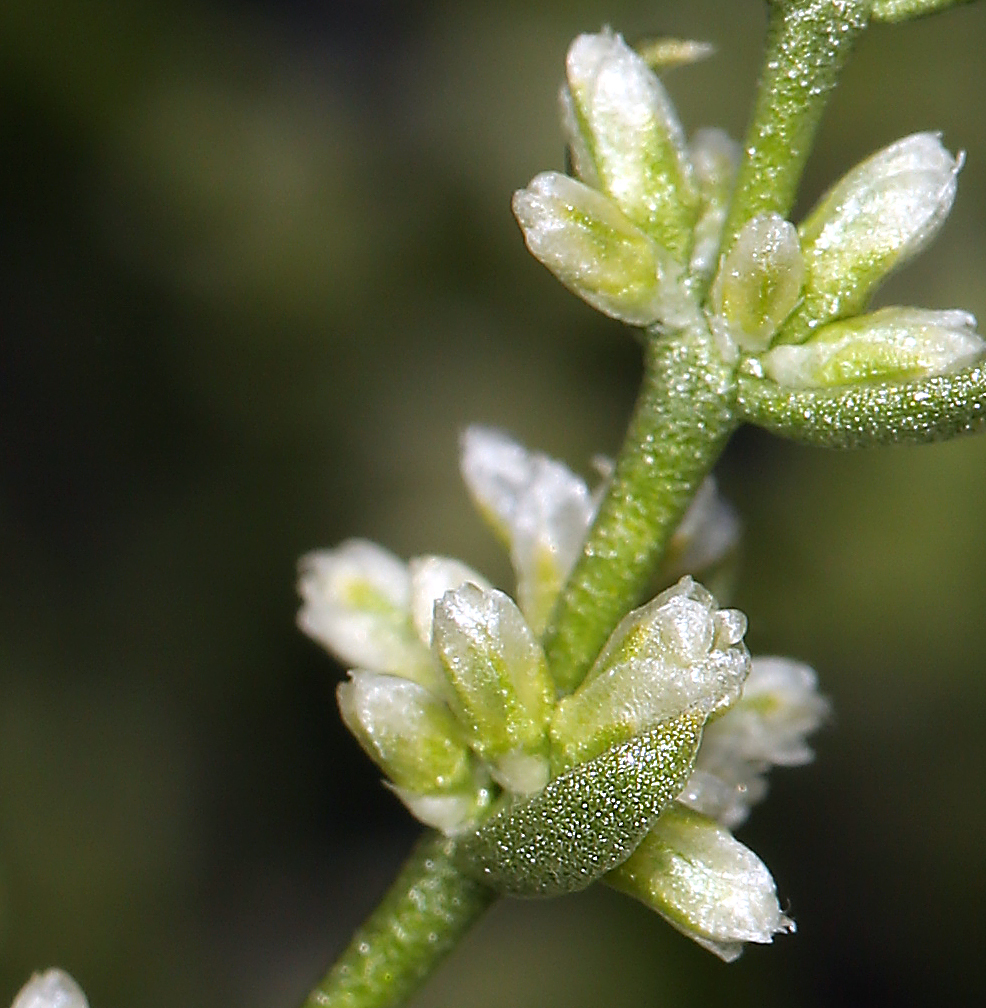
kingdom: Plantae
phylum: Tracheophyta
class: Magnoliopsida
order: Caryophyllales
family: Caryophyllaceae
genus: Scopulophila
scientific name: Scopulophila rixfordii
